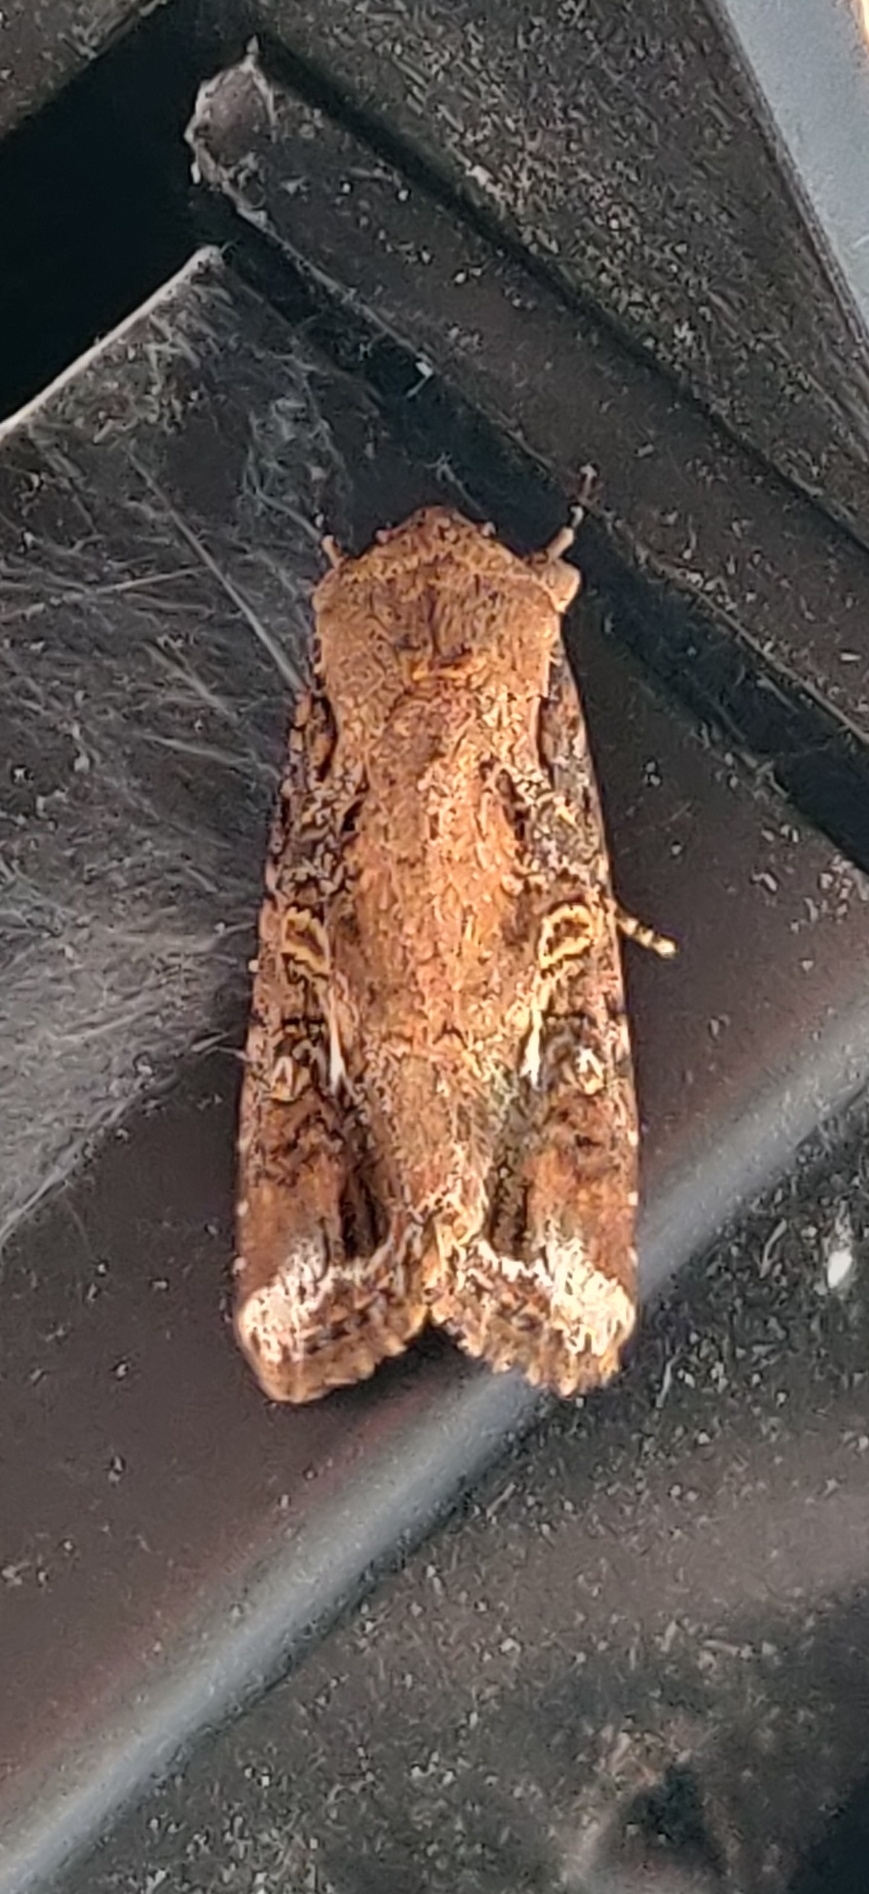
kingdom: Animalia
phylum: Arthropoda
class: Insecta
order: Lepidoptera
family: Noctuidae
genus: Spodoptera
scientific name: Spodoptera frugiperda
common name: Fall armyworm
